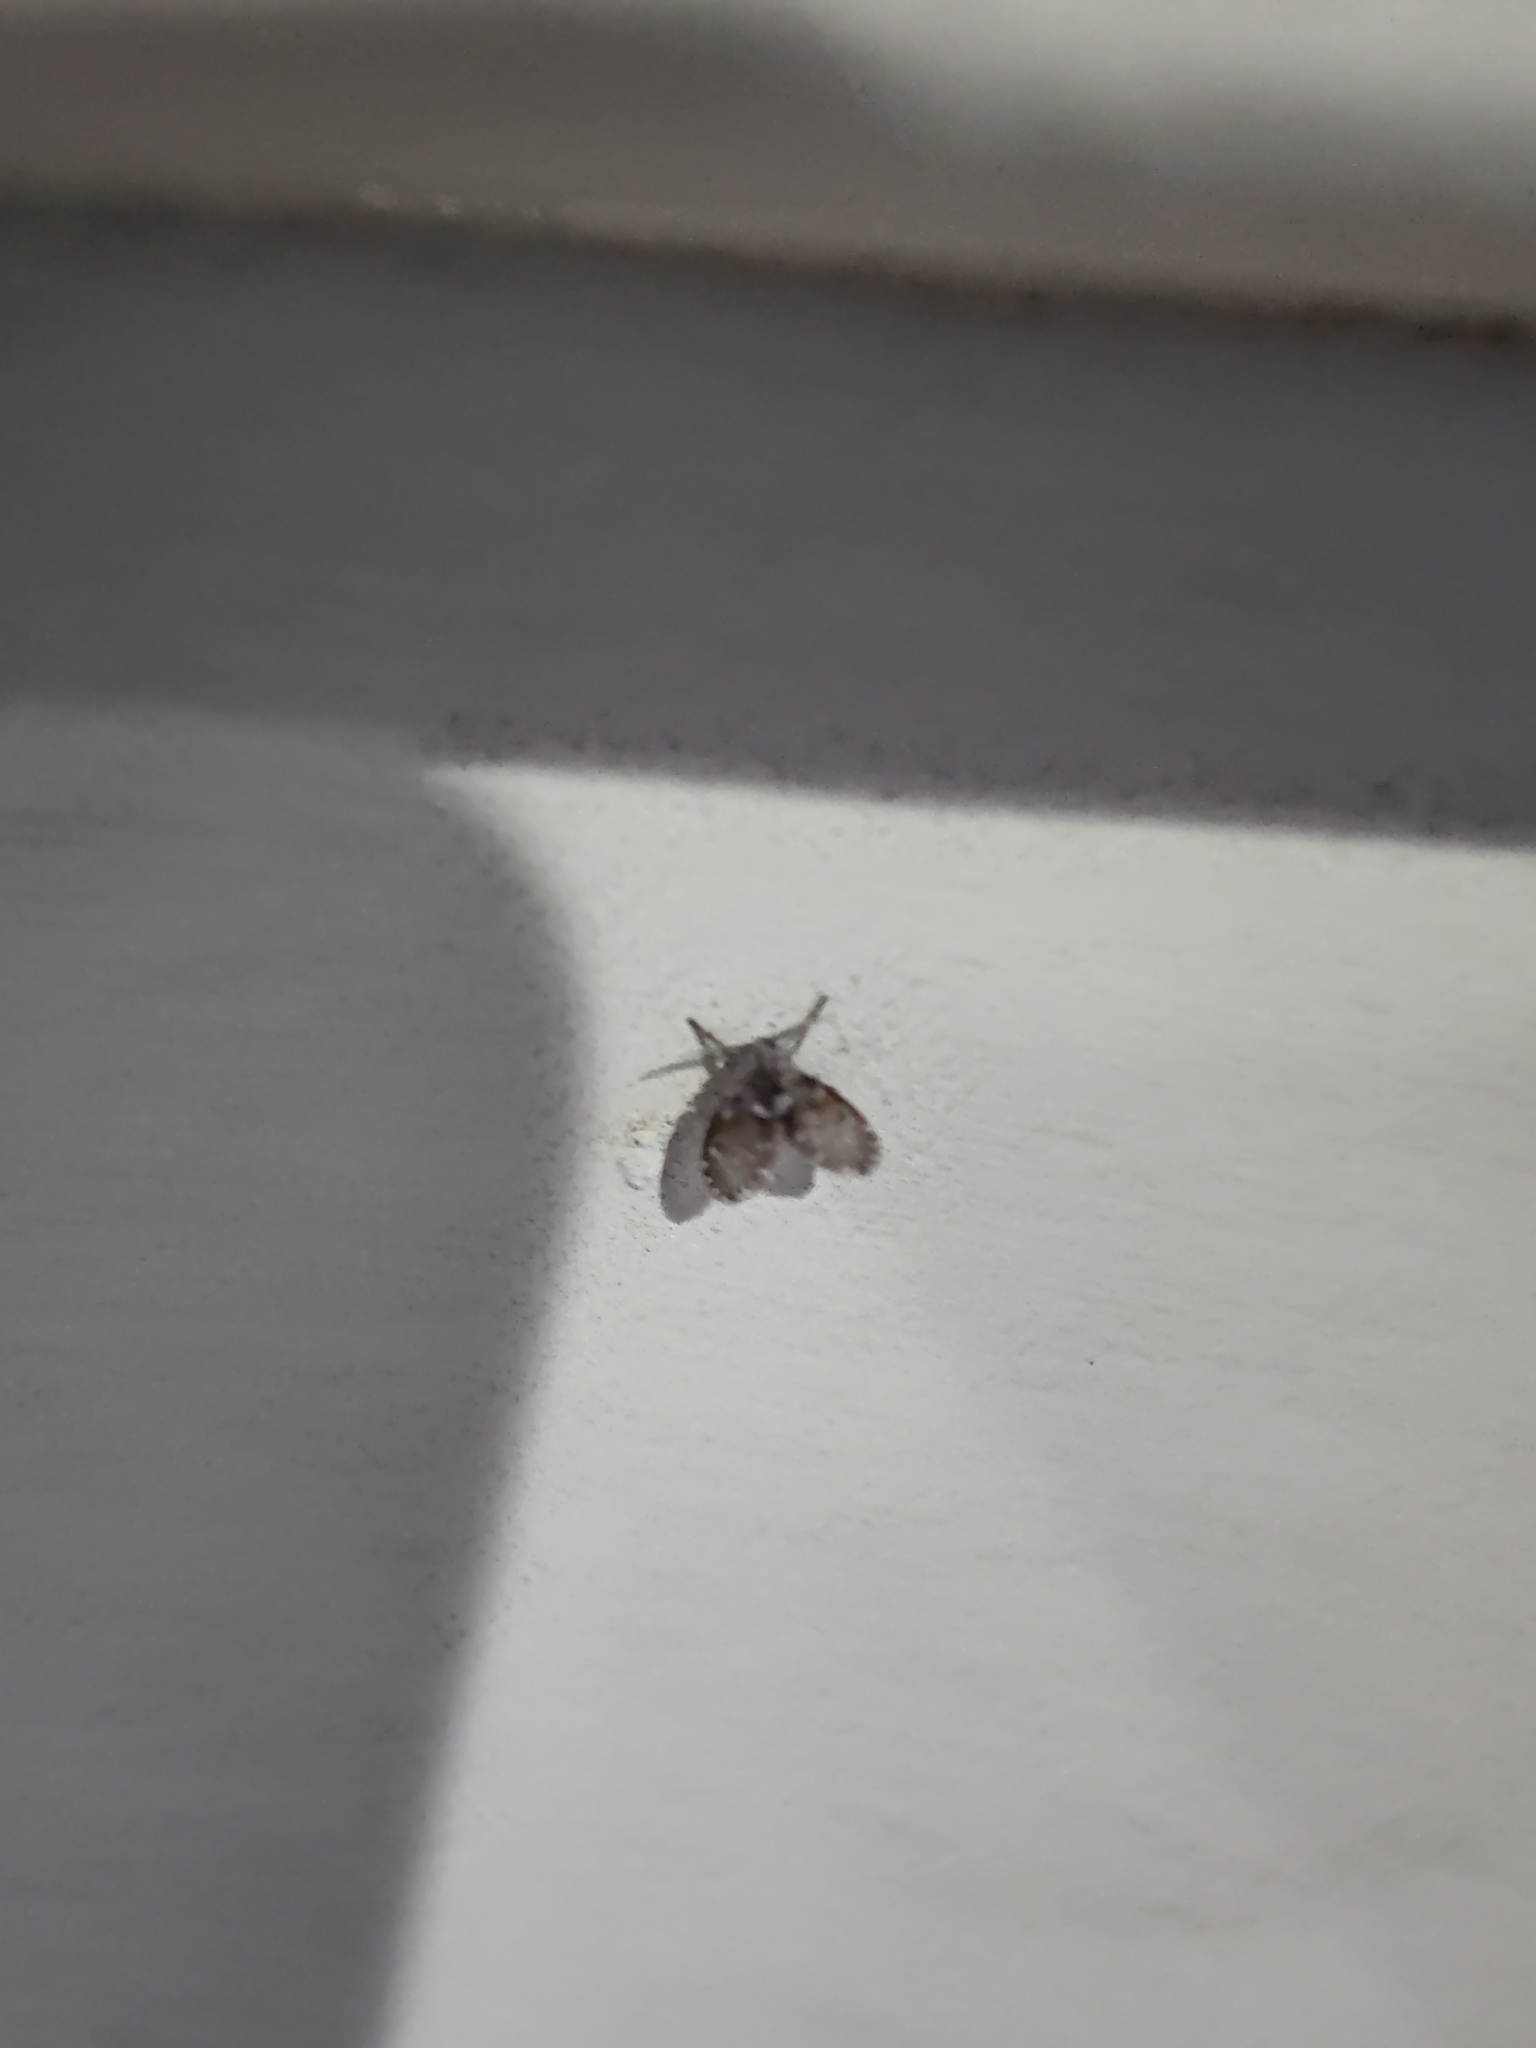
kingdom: Animalia
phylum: Arthropoda
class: Insecta
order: Diptera
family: Psychodidae
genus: Clogmia
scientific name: Clogmia albipunctatus
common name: White-spotted moth fly
